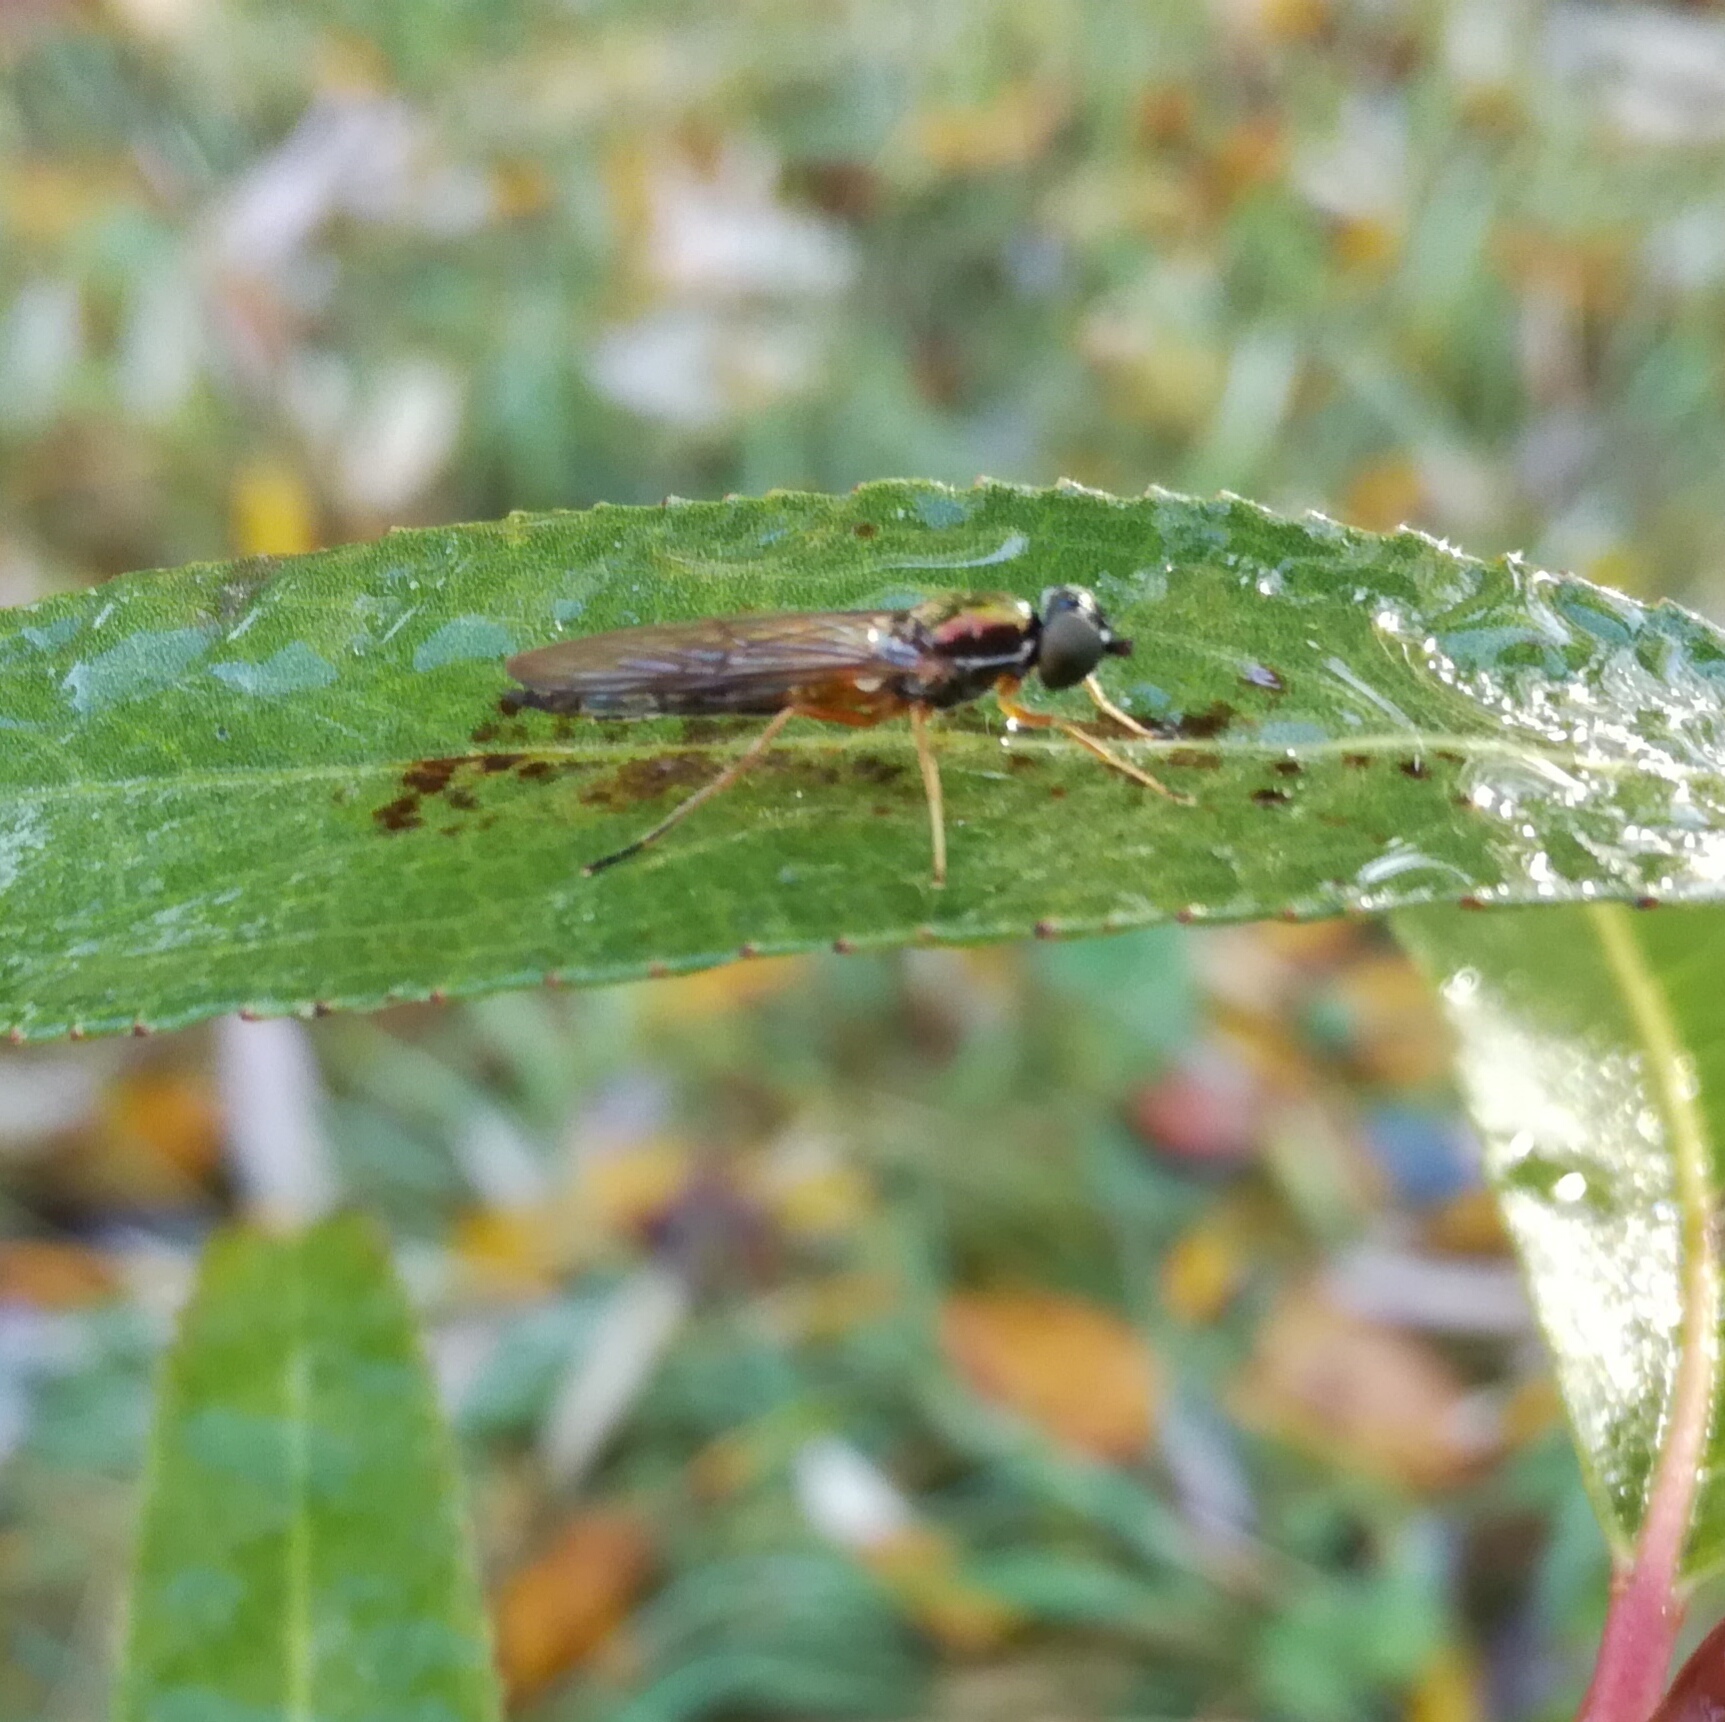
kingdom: Animalia
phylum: Arthropoda
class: Insecta
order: Diptera
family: Stratiomyidae
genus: Sargus
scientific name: Sargus bipunctatus
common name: Twin-spot centurion
